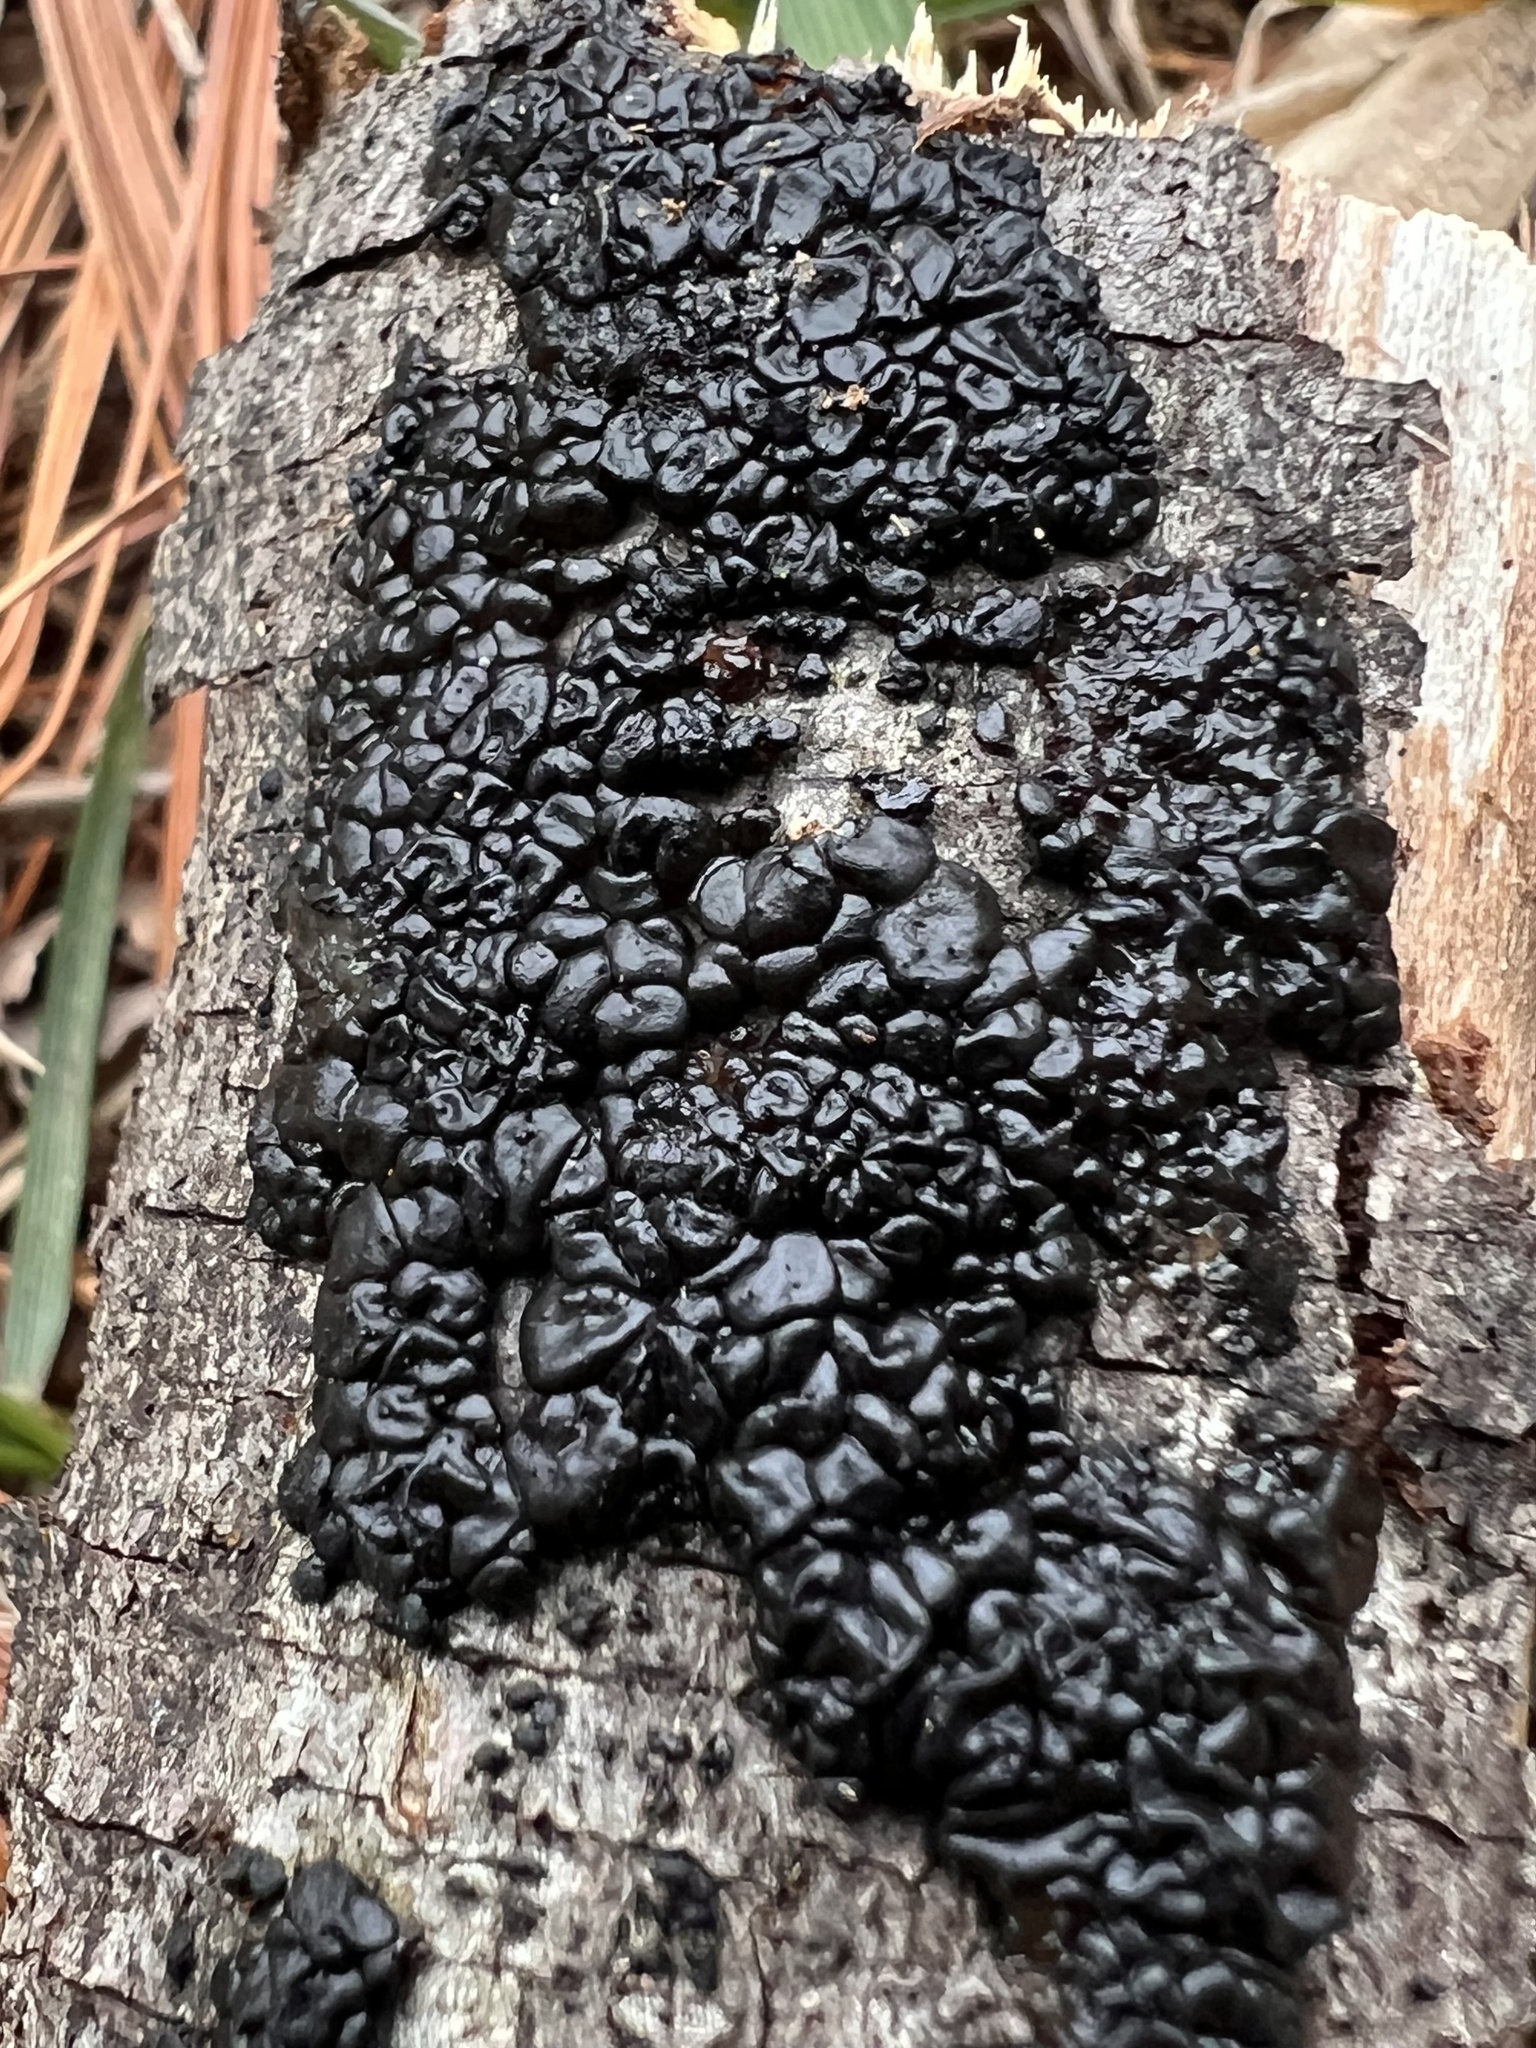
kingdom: Fungi
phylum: Basidiomycota
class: Agaricomycetes
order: Auriculariales
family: Auriculariaceae
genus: Exidia
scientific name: Exidia glandulosa
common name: Witches' butter
